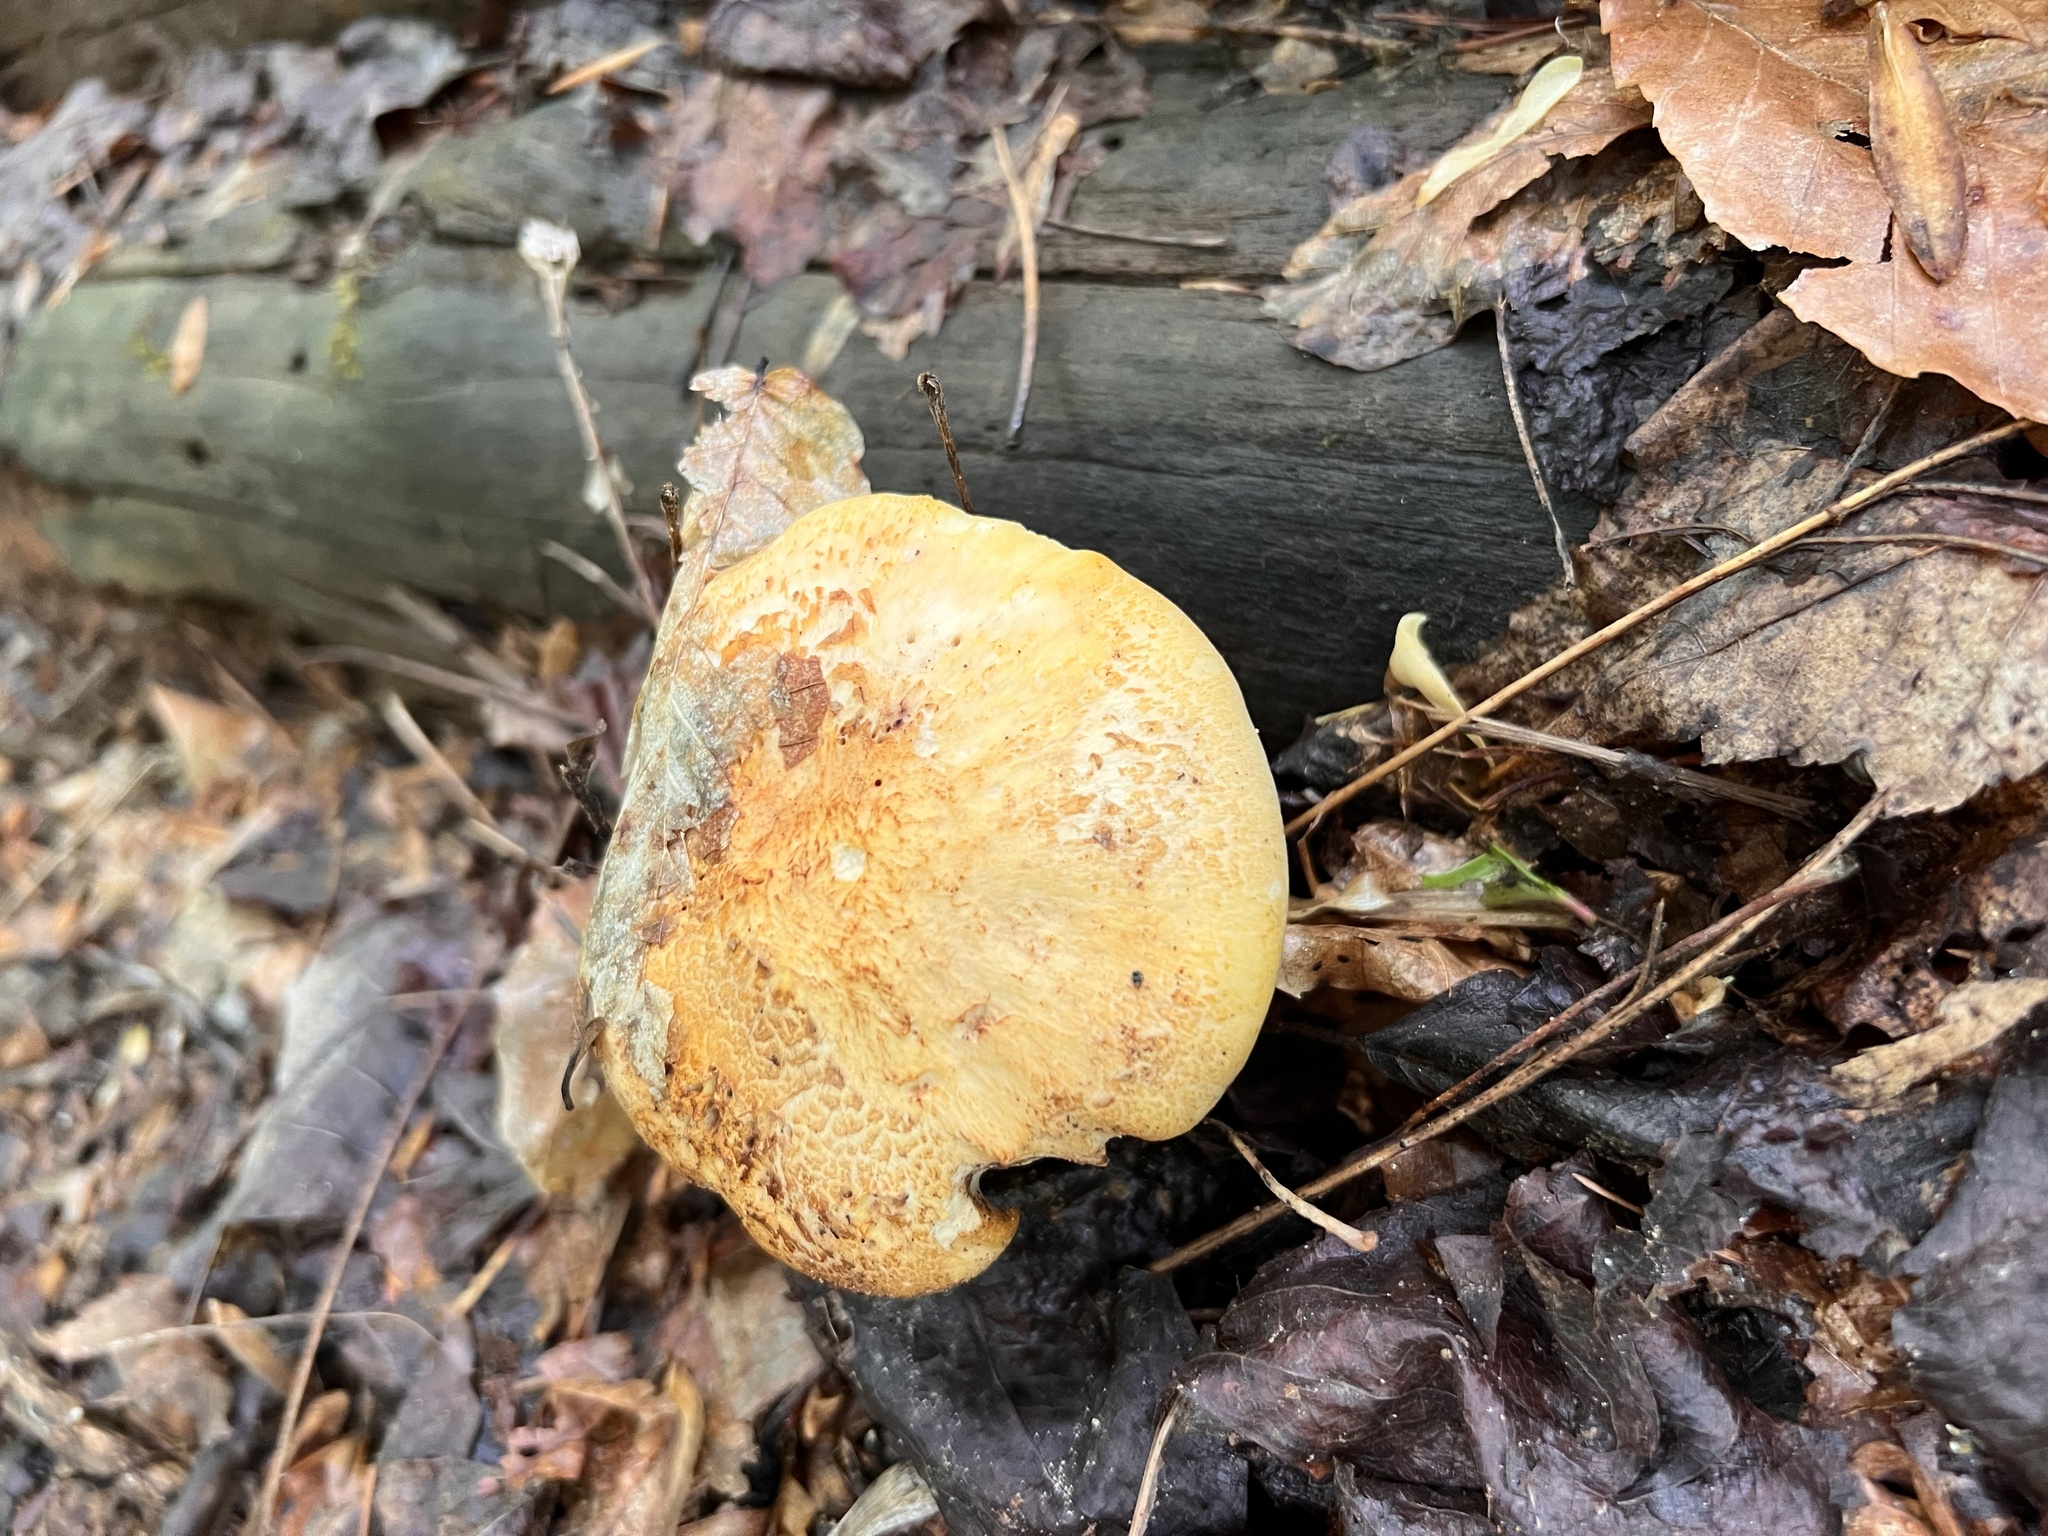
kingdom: Fungi
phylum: Basidiomycota
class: Agaricomycetes
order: Gloeophyllales
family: Gloeophyllaceae
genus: Neolentinus
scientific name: Neolentinus lepideus
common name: Scaly sawgill
